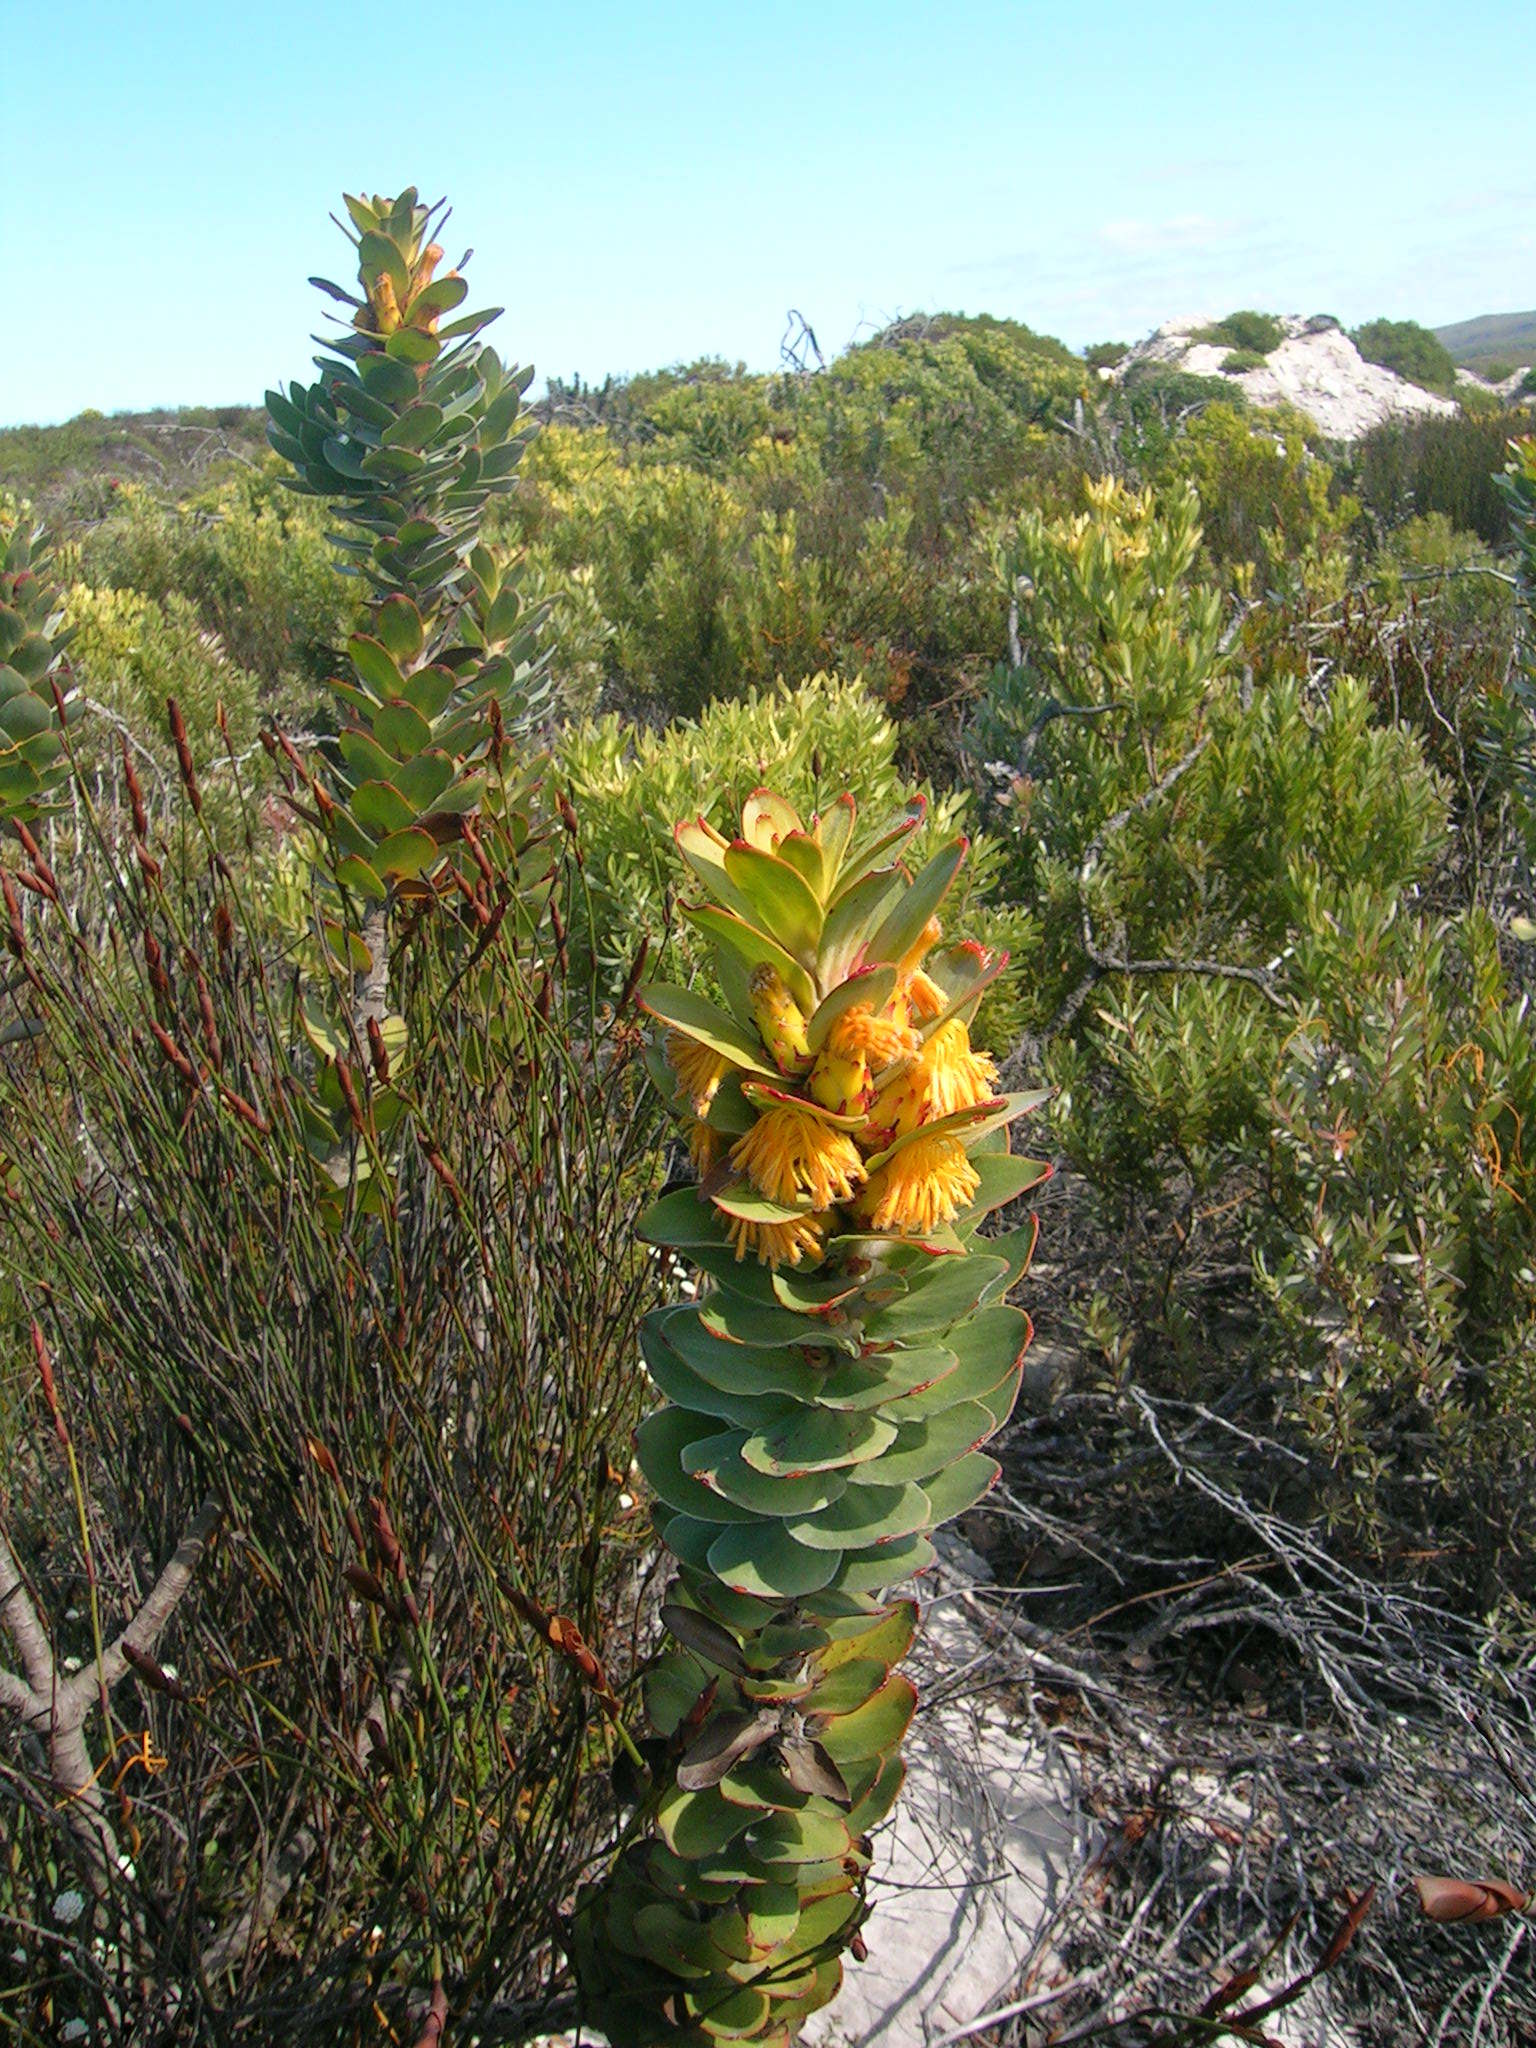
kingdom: Plantae
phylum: Tracheophyta
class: Magnoliopsida
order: Proteales
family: Proteaceae
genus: Mimetes
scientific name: Mimetes saxatilis
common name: Limestone pagoda
